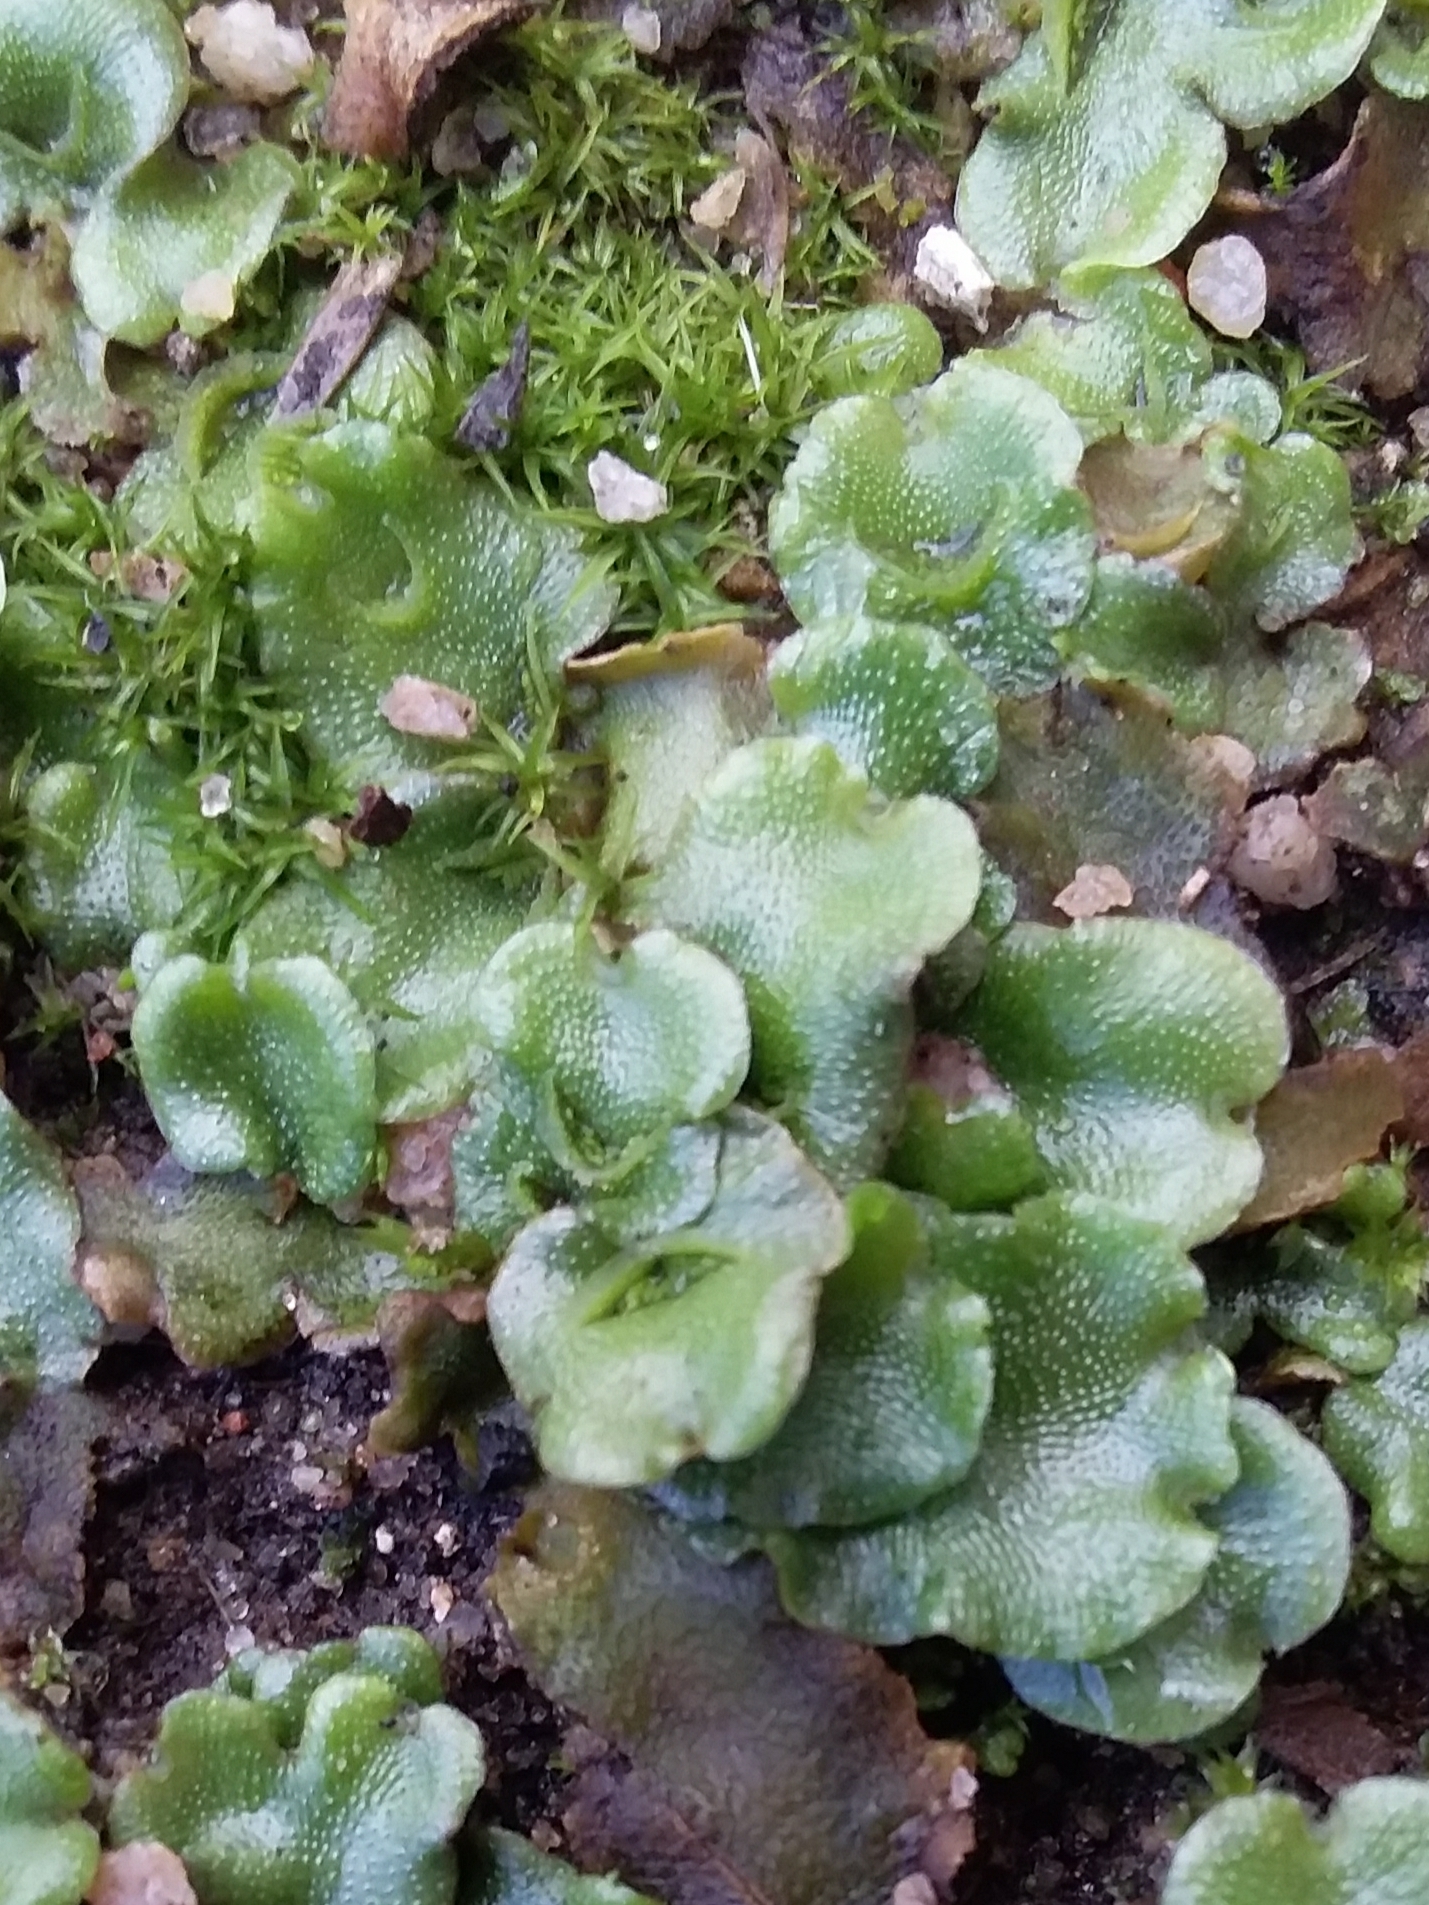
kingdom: Plantae
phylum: Marchantiophyta
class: Marchantiopsida
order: Lunulariales
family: Lunulariaceae
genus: Lunularia
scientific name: Lunularia cruciata
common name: Crescent-cup liverwort
